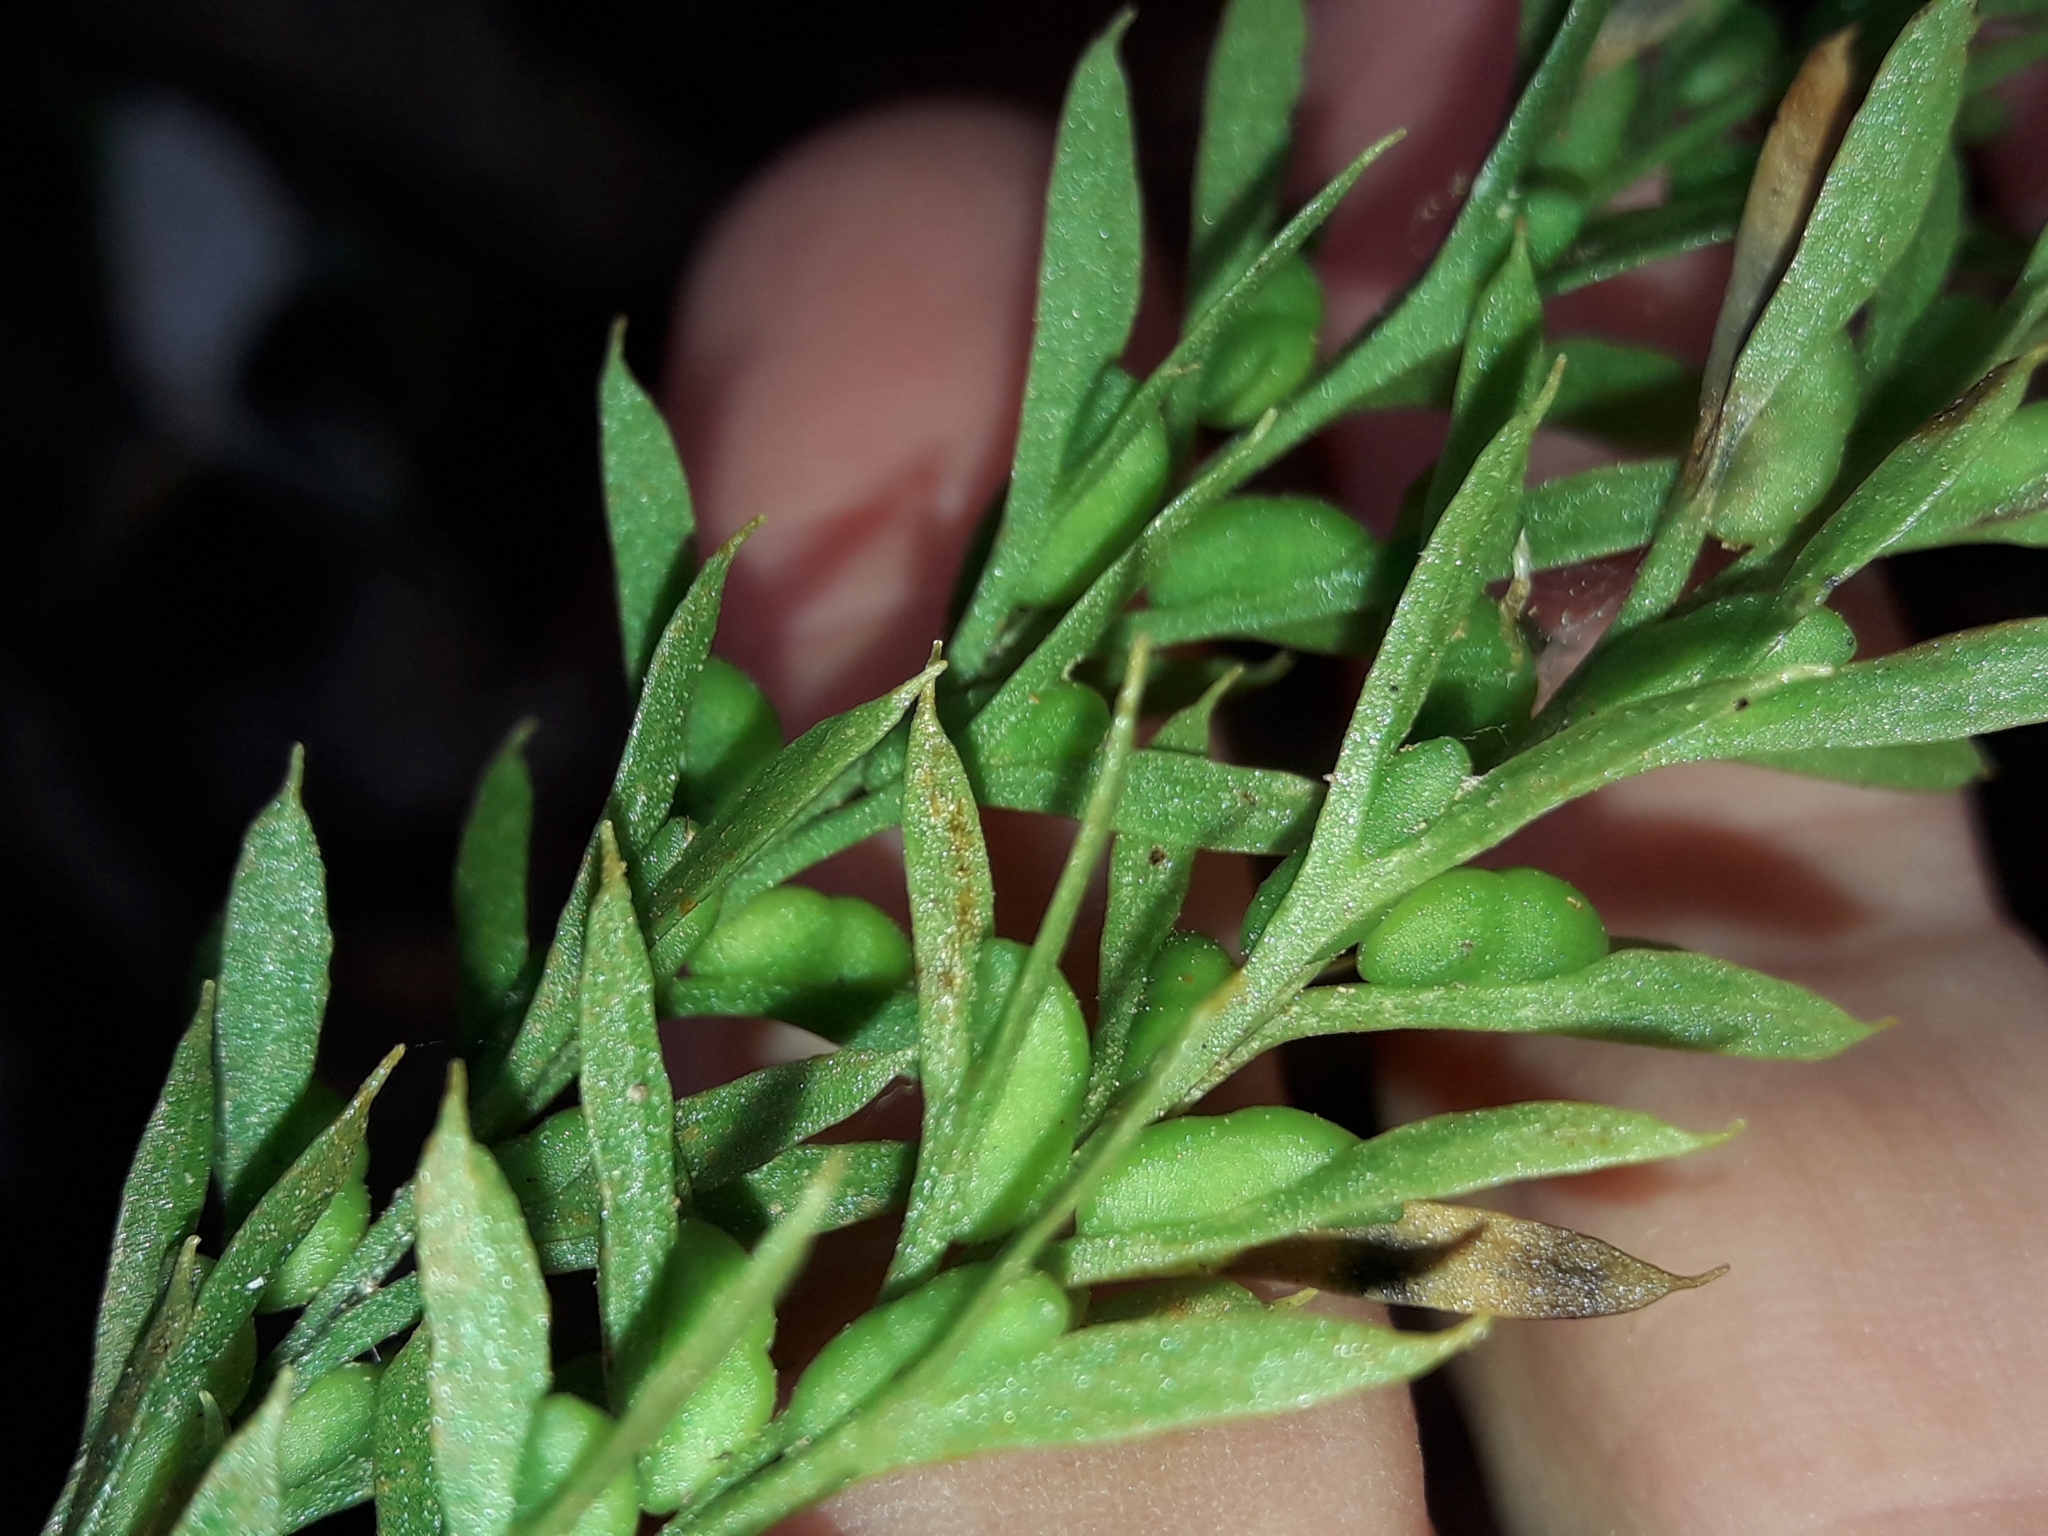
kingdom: Plantae
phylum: Tracheophyta
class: Polypodiopsida
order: Psilotales
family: Psilotaceae
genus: Tmesipteris
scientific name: Tmesipteris elongata
